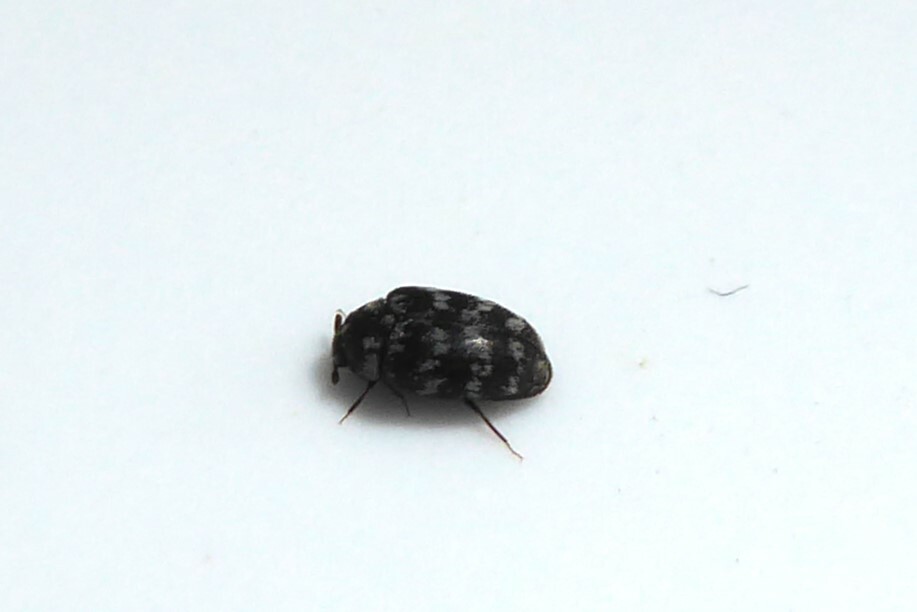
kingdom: Animalia
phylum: Arthropoda
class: Insecta
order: Coleoptera
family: Dermestidae
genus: Anthrenocerus
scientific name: Anthrenocerus australis
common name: Australian carpet beetle
